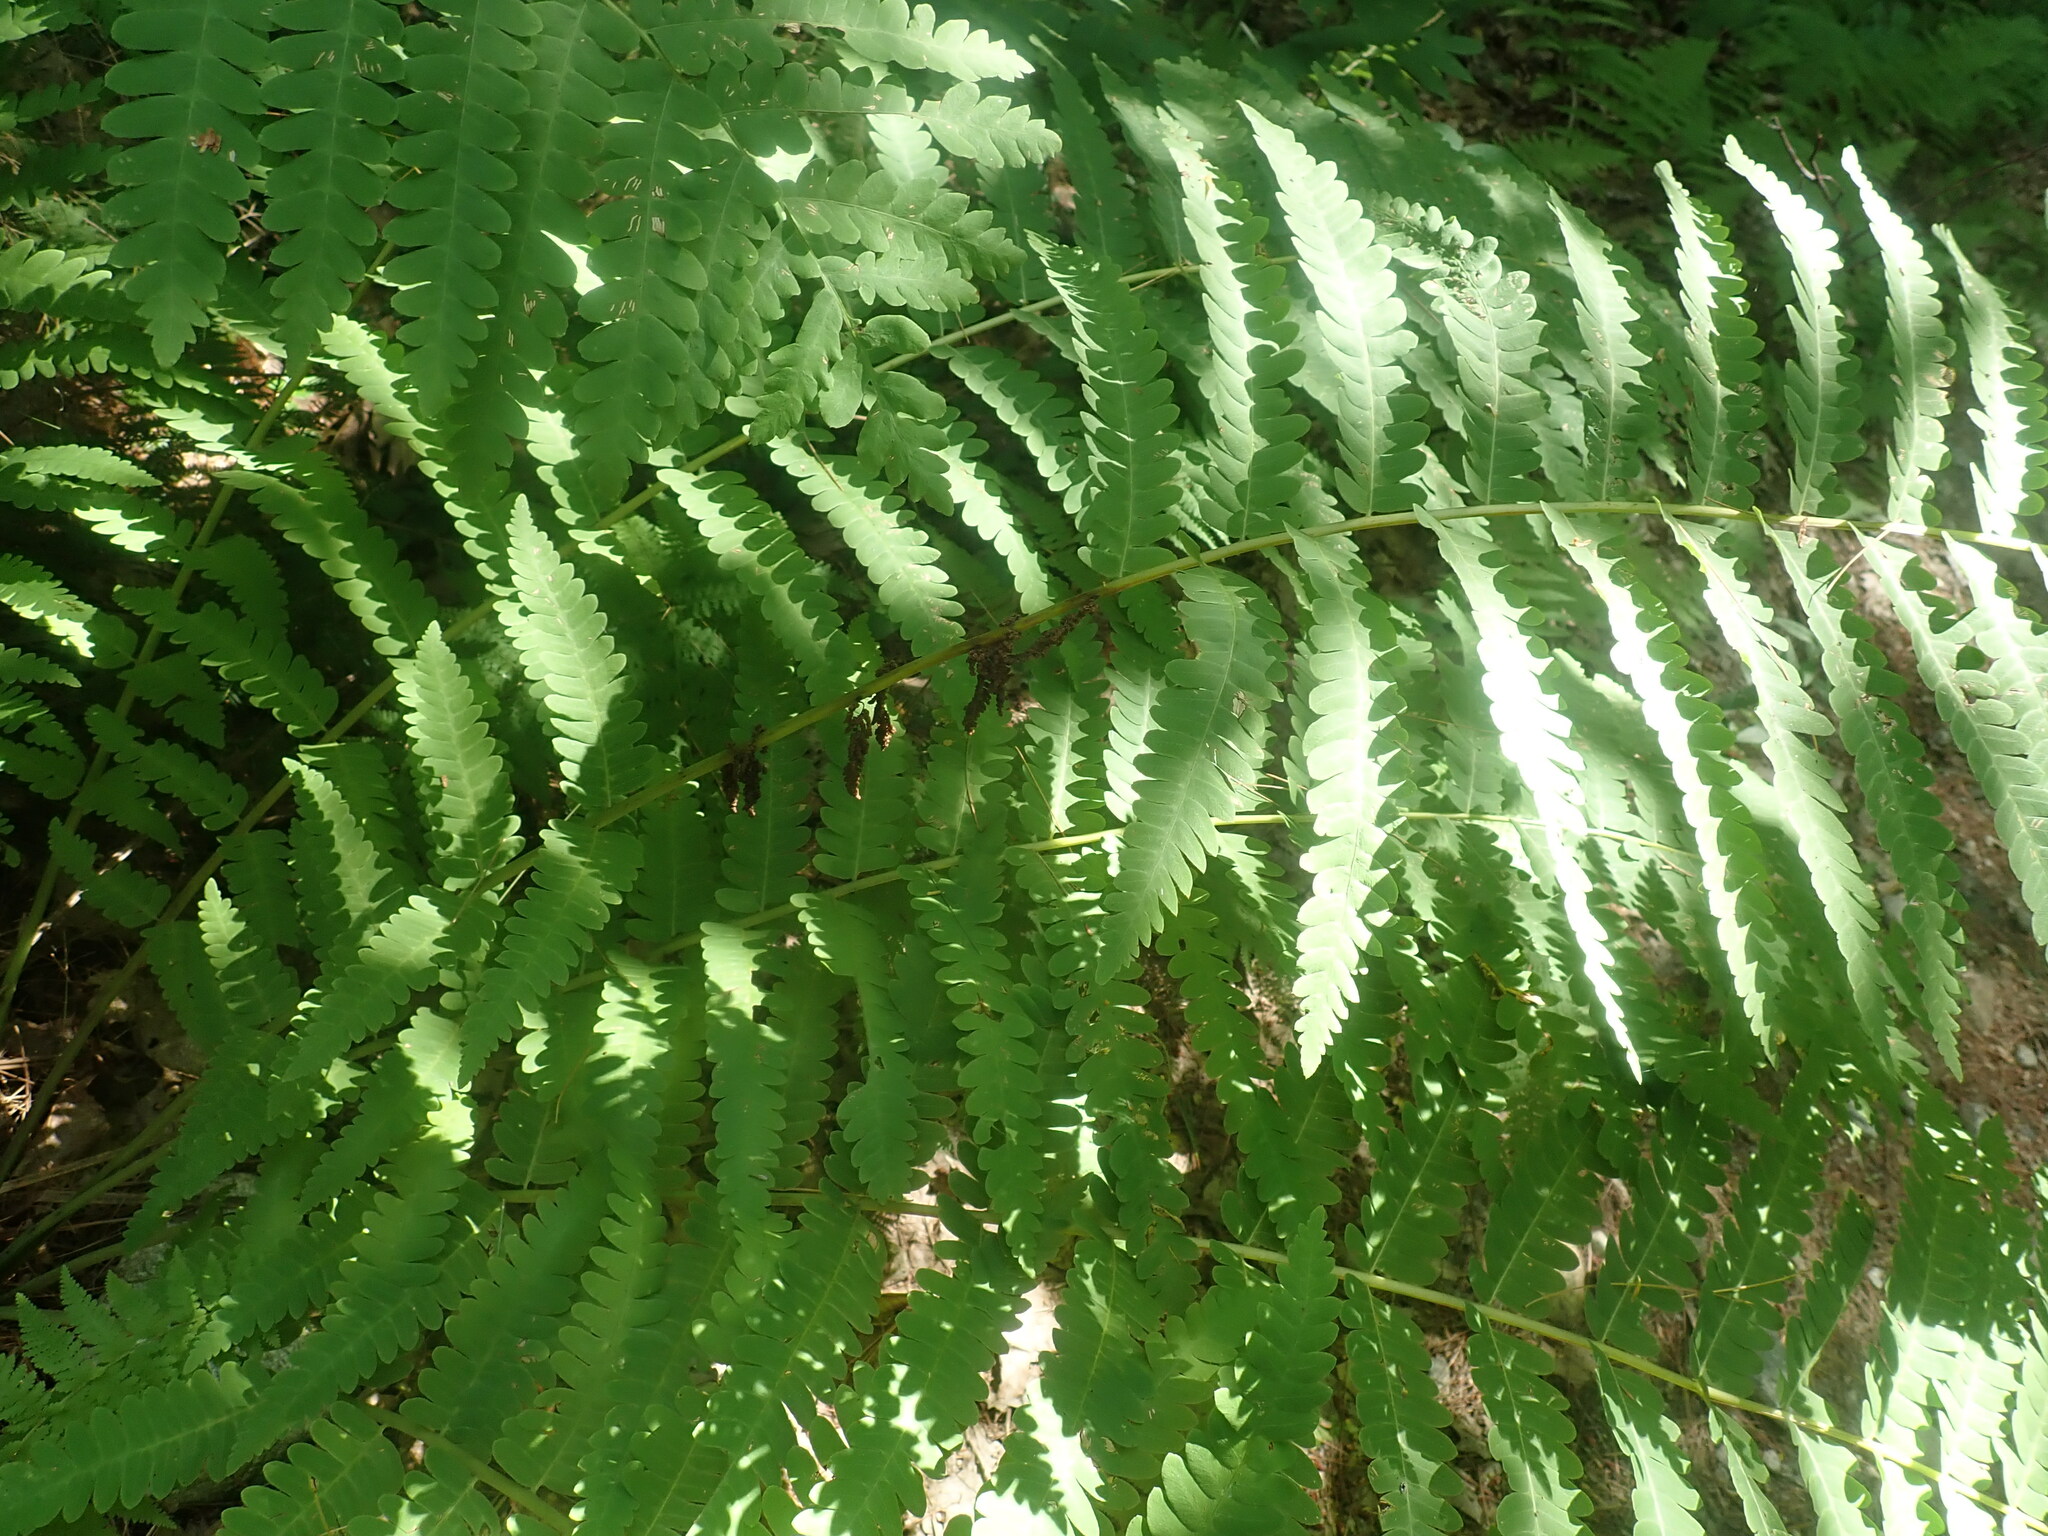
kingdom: Plantae
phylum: Tracheophyta
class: Polypodiopsida
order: Osmundales
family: Osmundaceae
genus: Claytosmunda
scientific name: Claytosmunda claytoniana
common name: Clayton's fern
